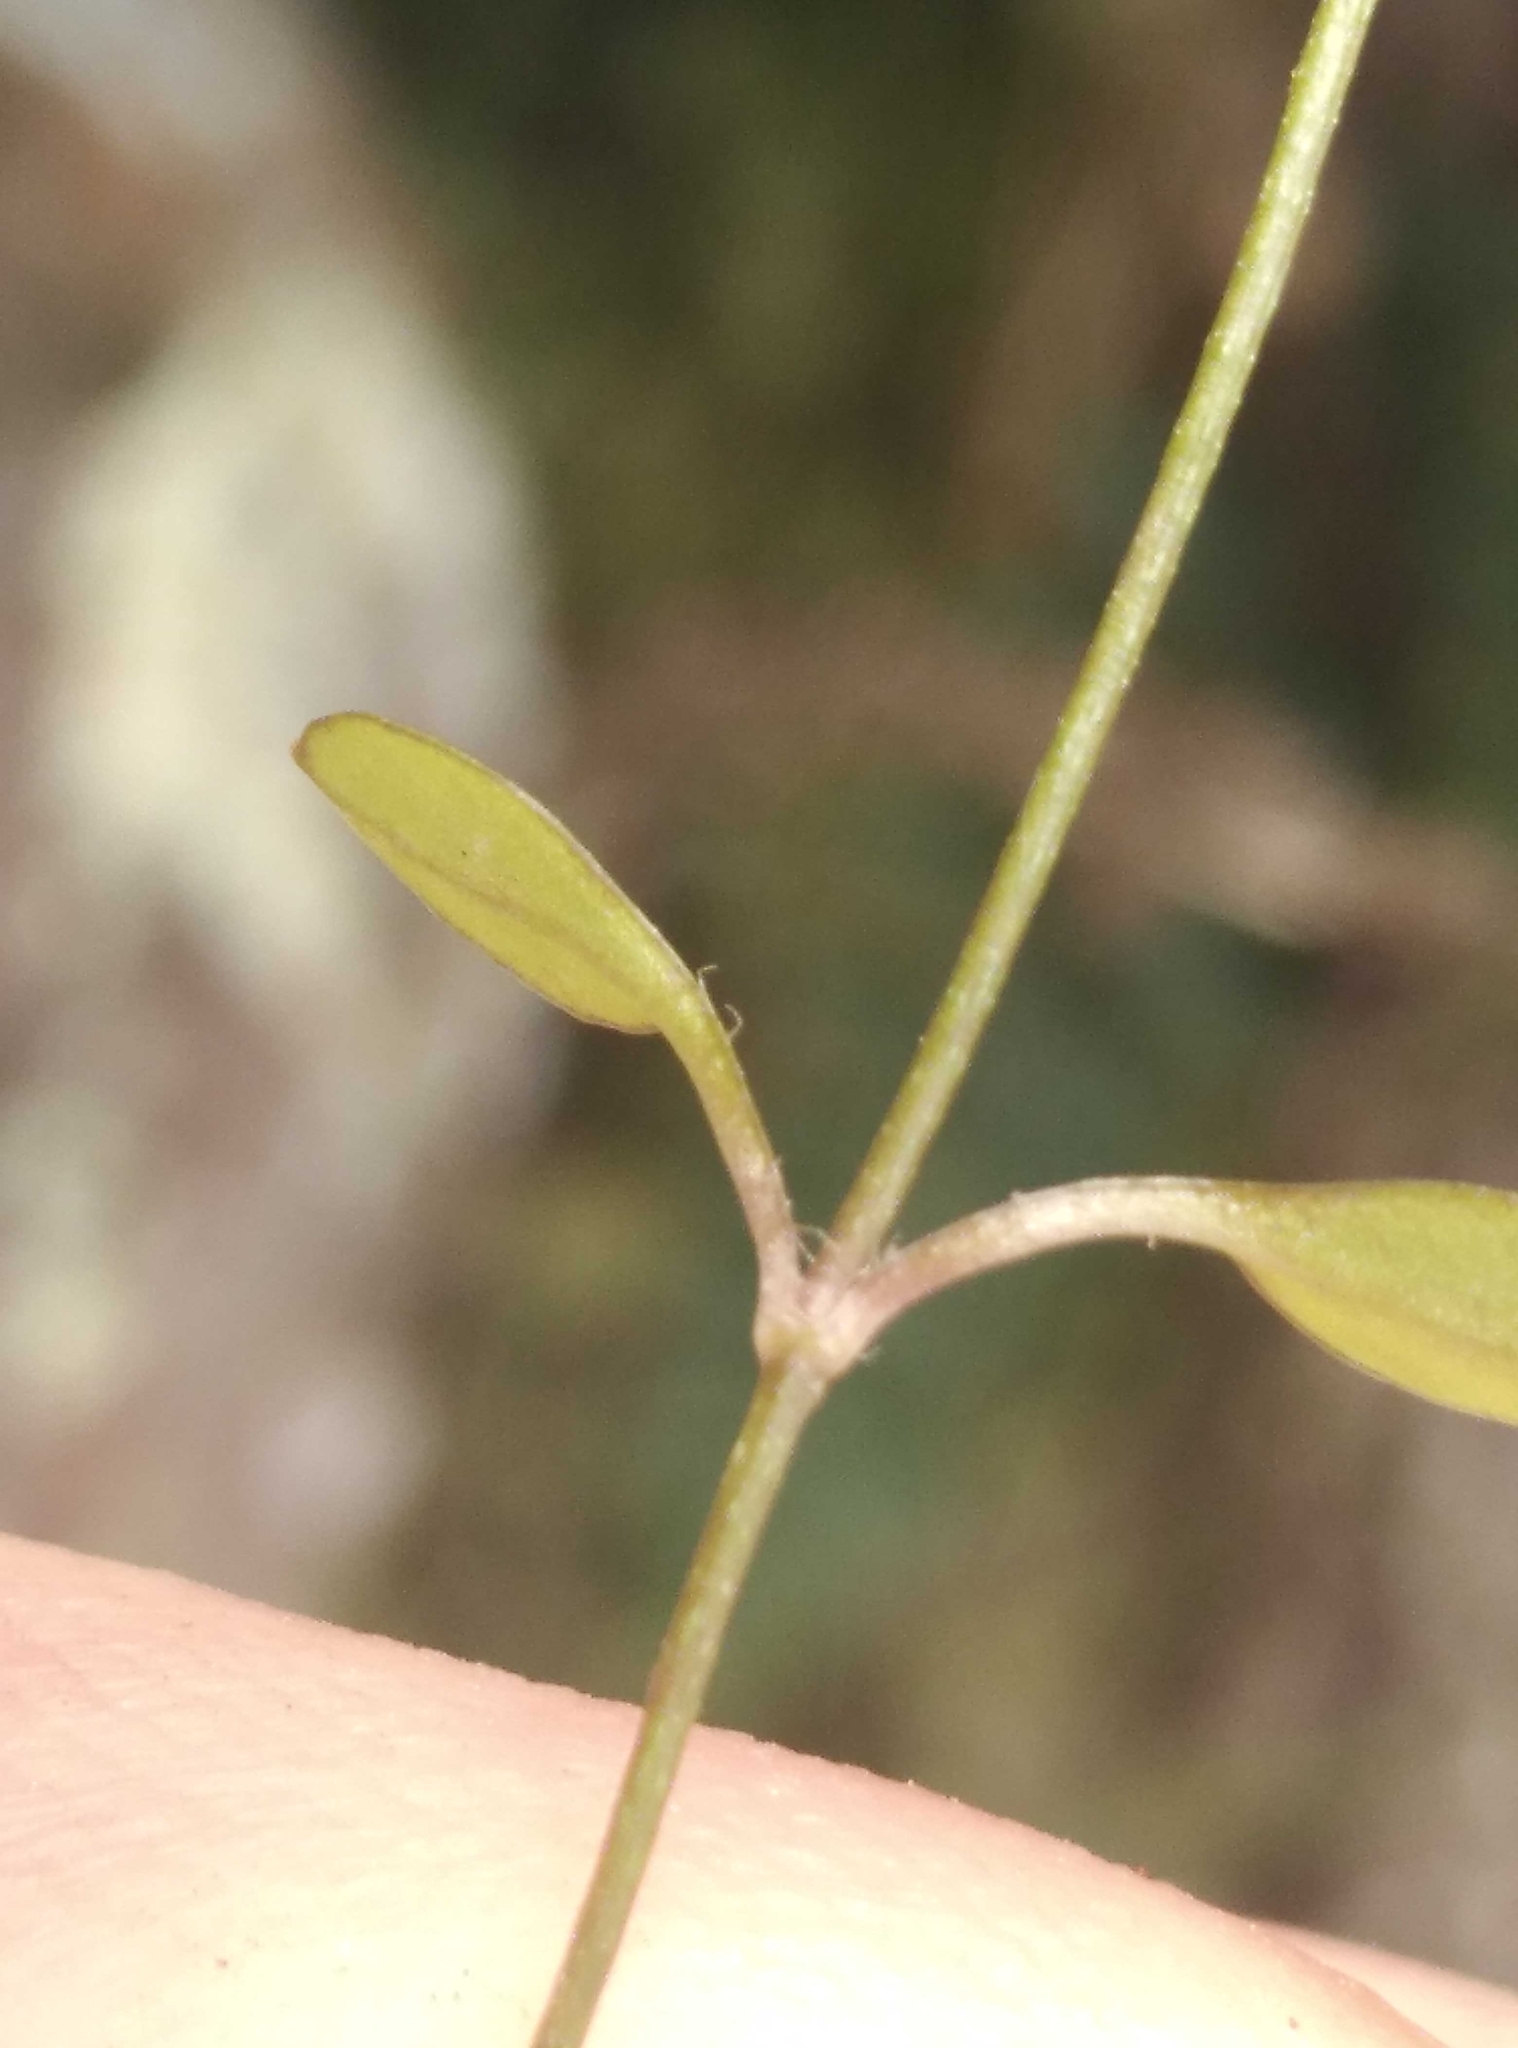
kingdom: Plantae
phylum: Tracheophyta
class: Magnoliopsida
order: Caryophyllales
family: Caryophyllaceae
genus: Stellaria
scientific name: Stellaria decipiens
